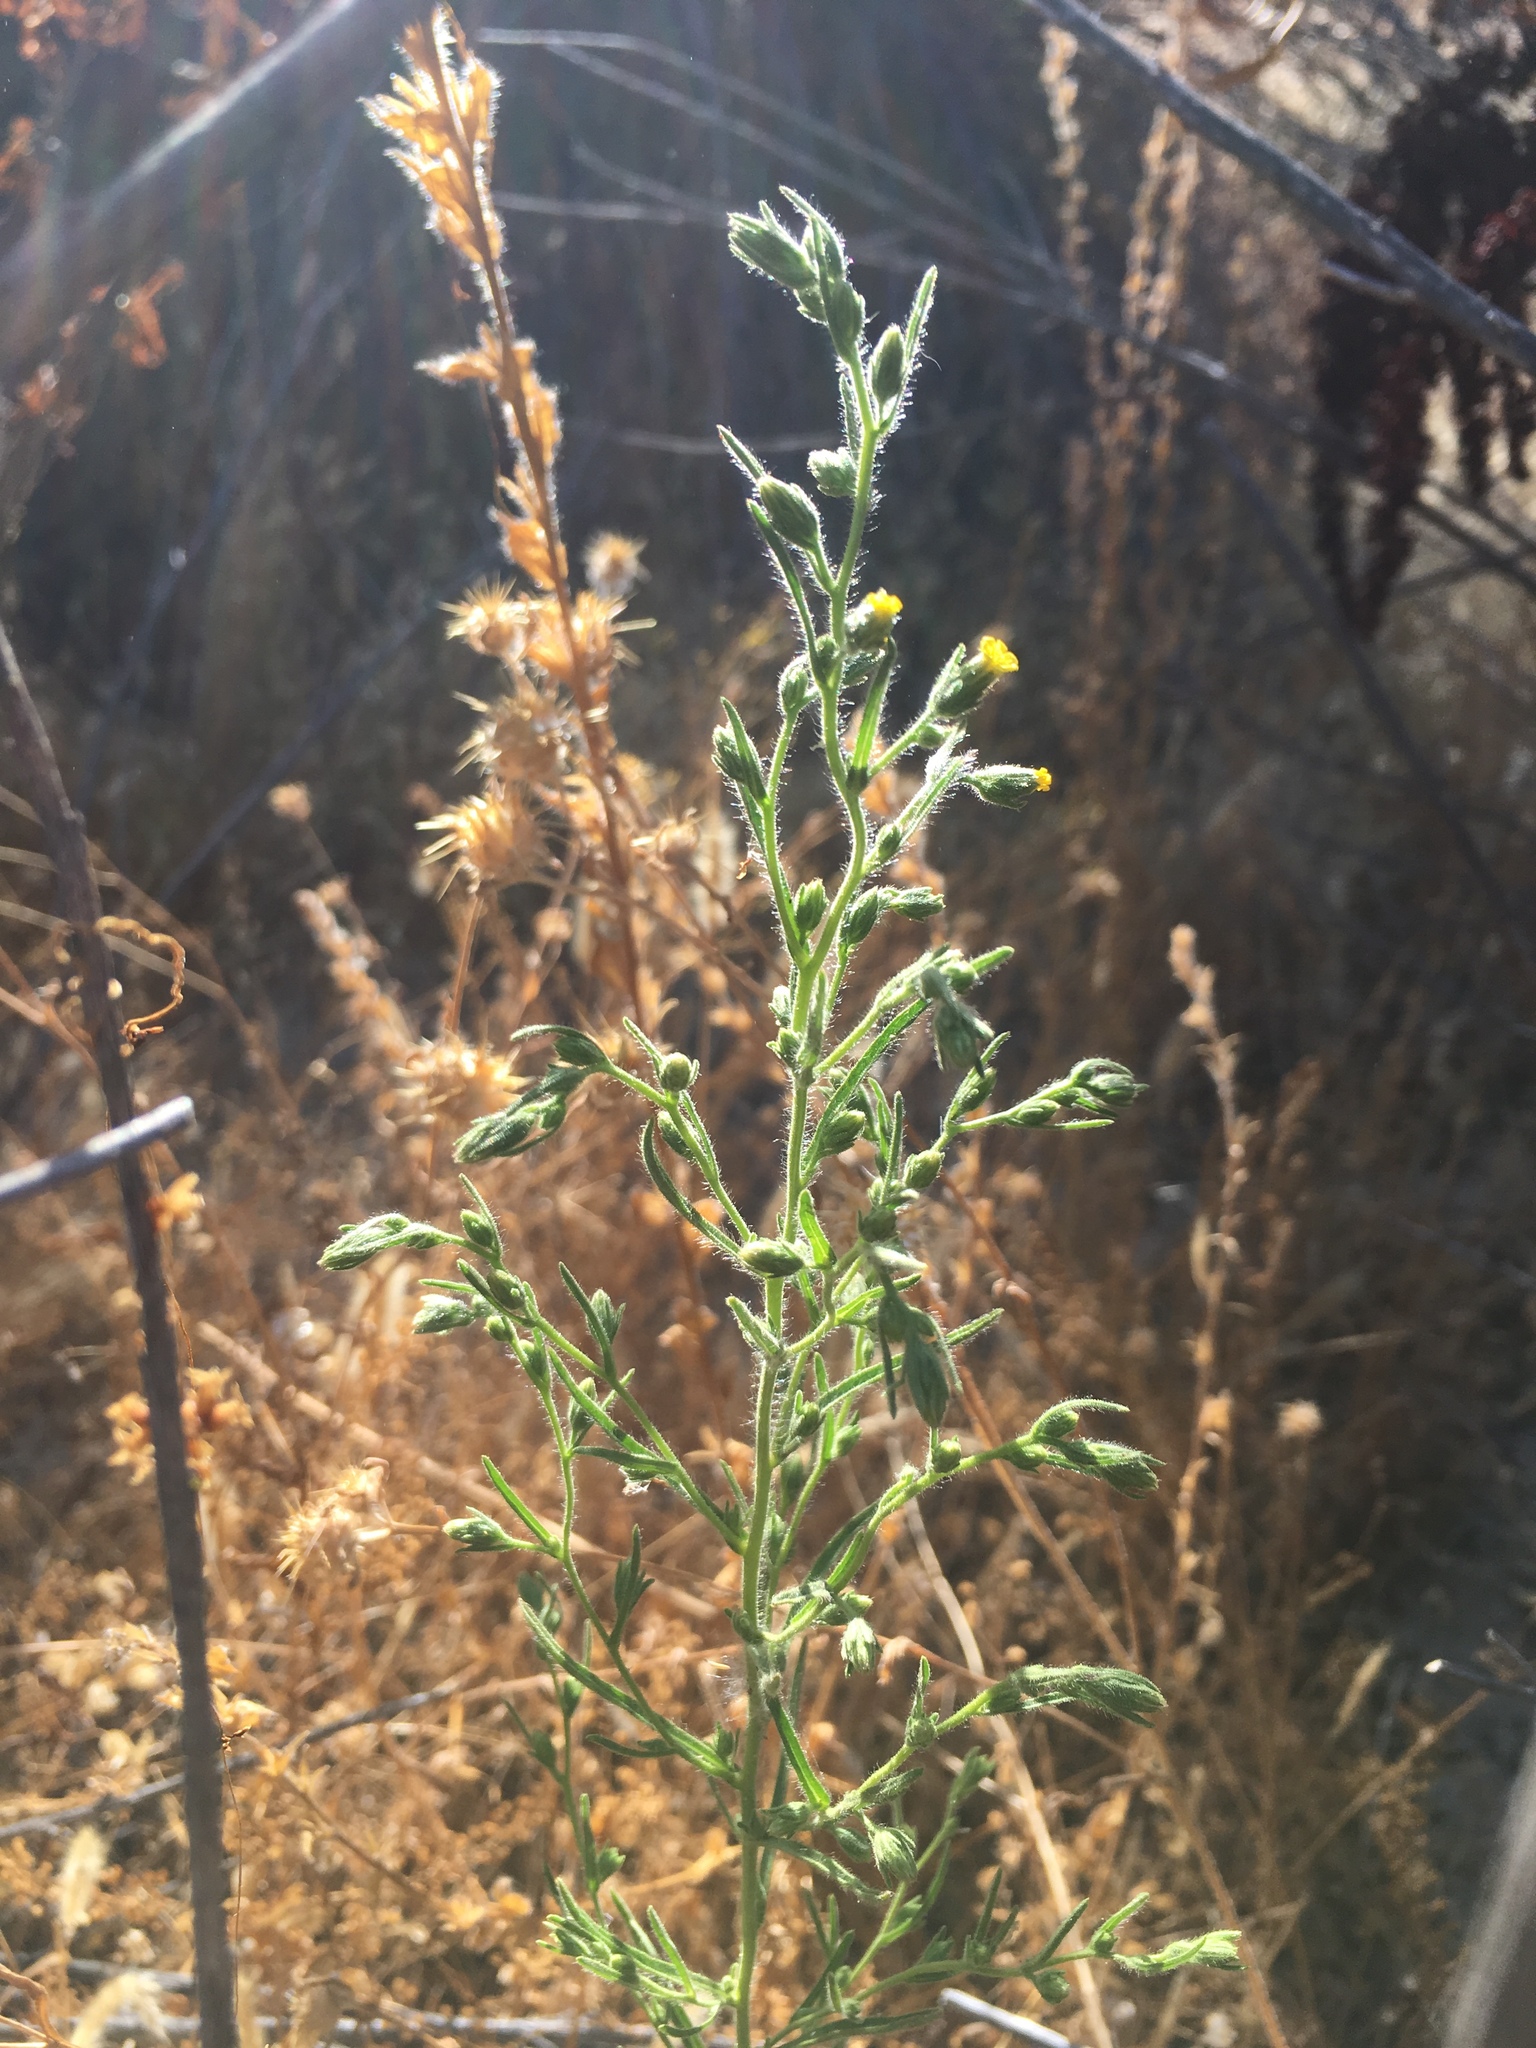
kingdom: Plantae
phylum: Tracheophyta
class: Magnoliopsida
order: Asterales
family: Asteraceae
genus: Dittrichia
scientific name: Dittrichia graveolens
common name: Stinking fleabane
